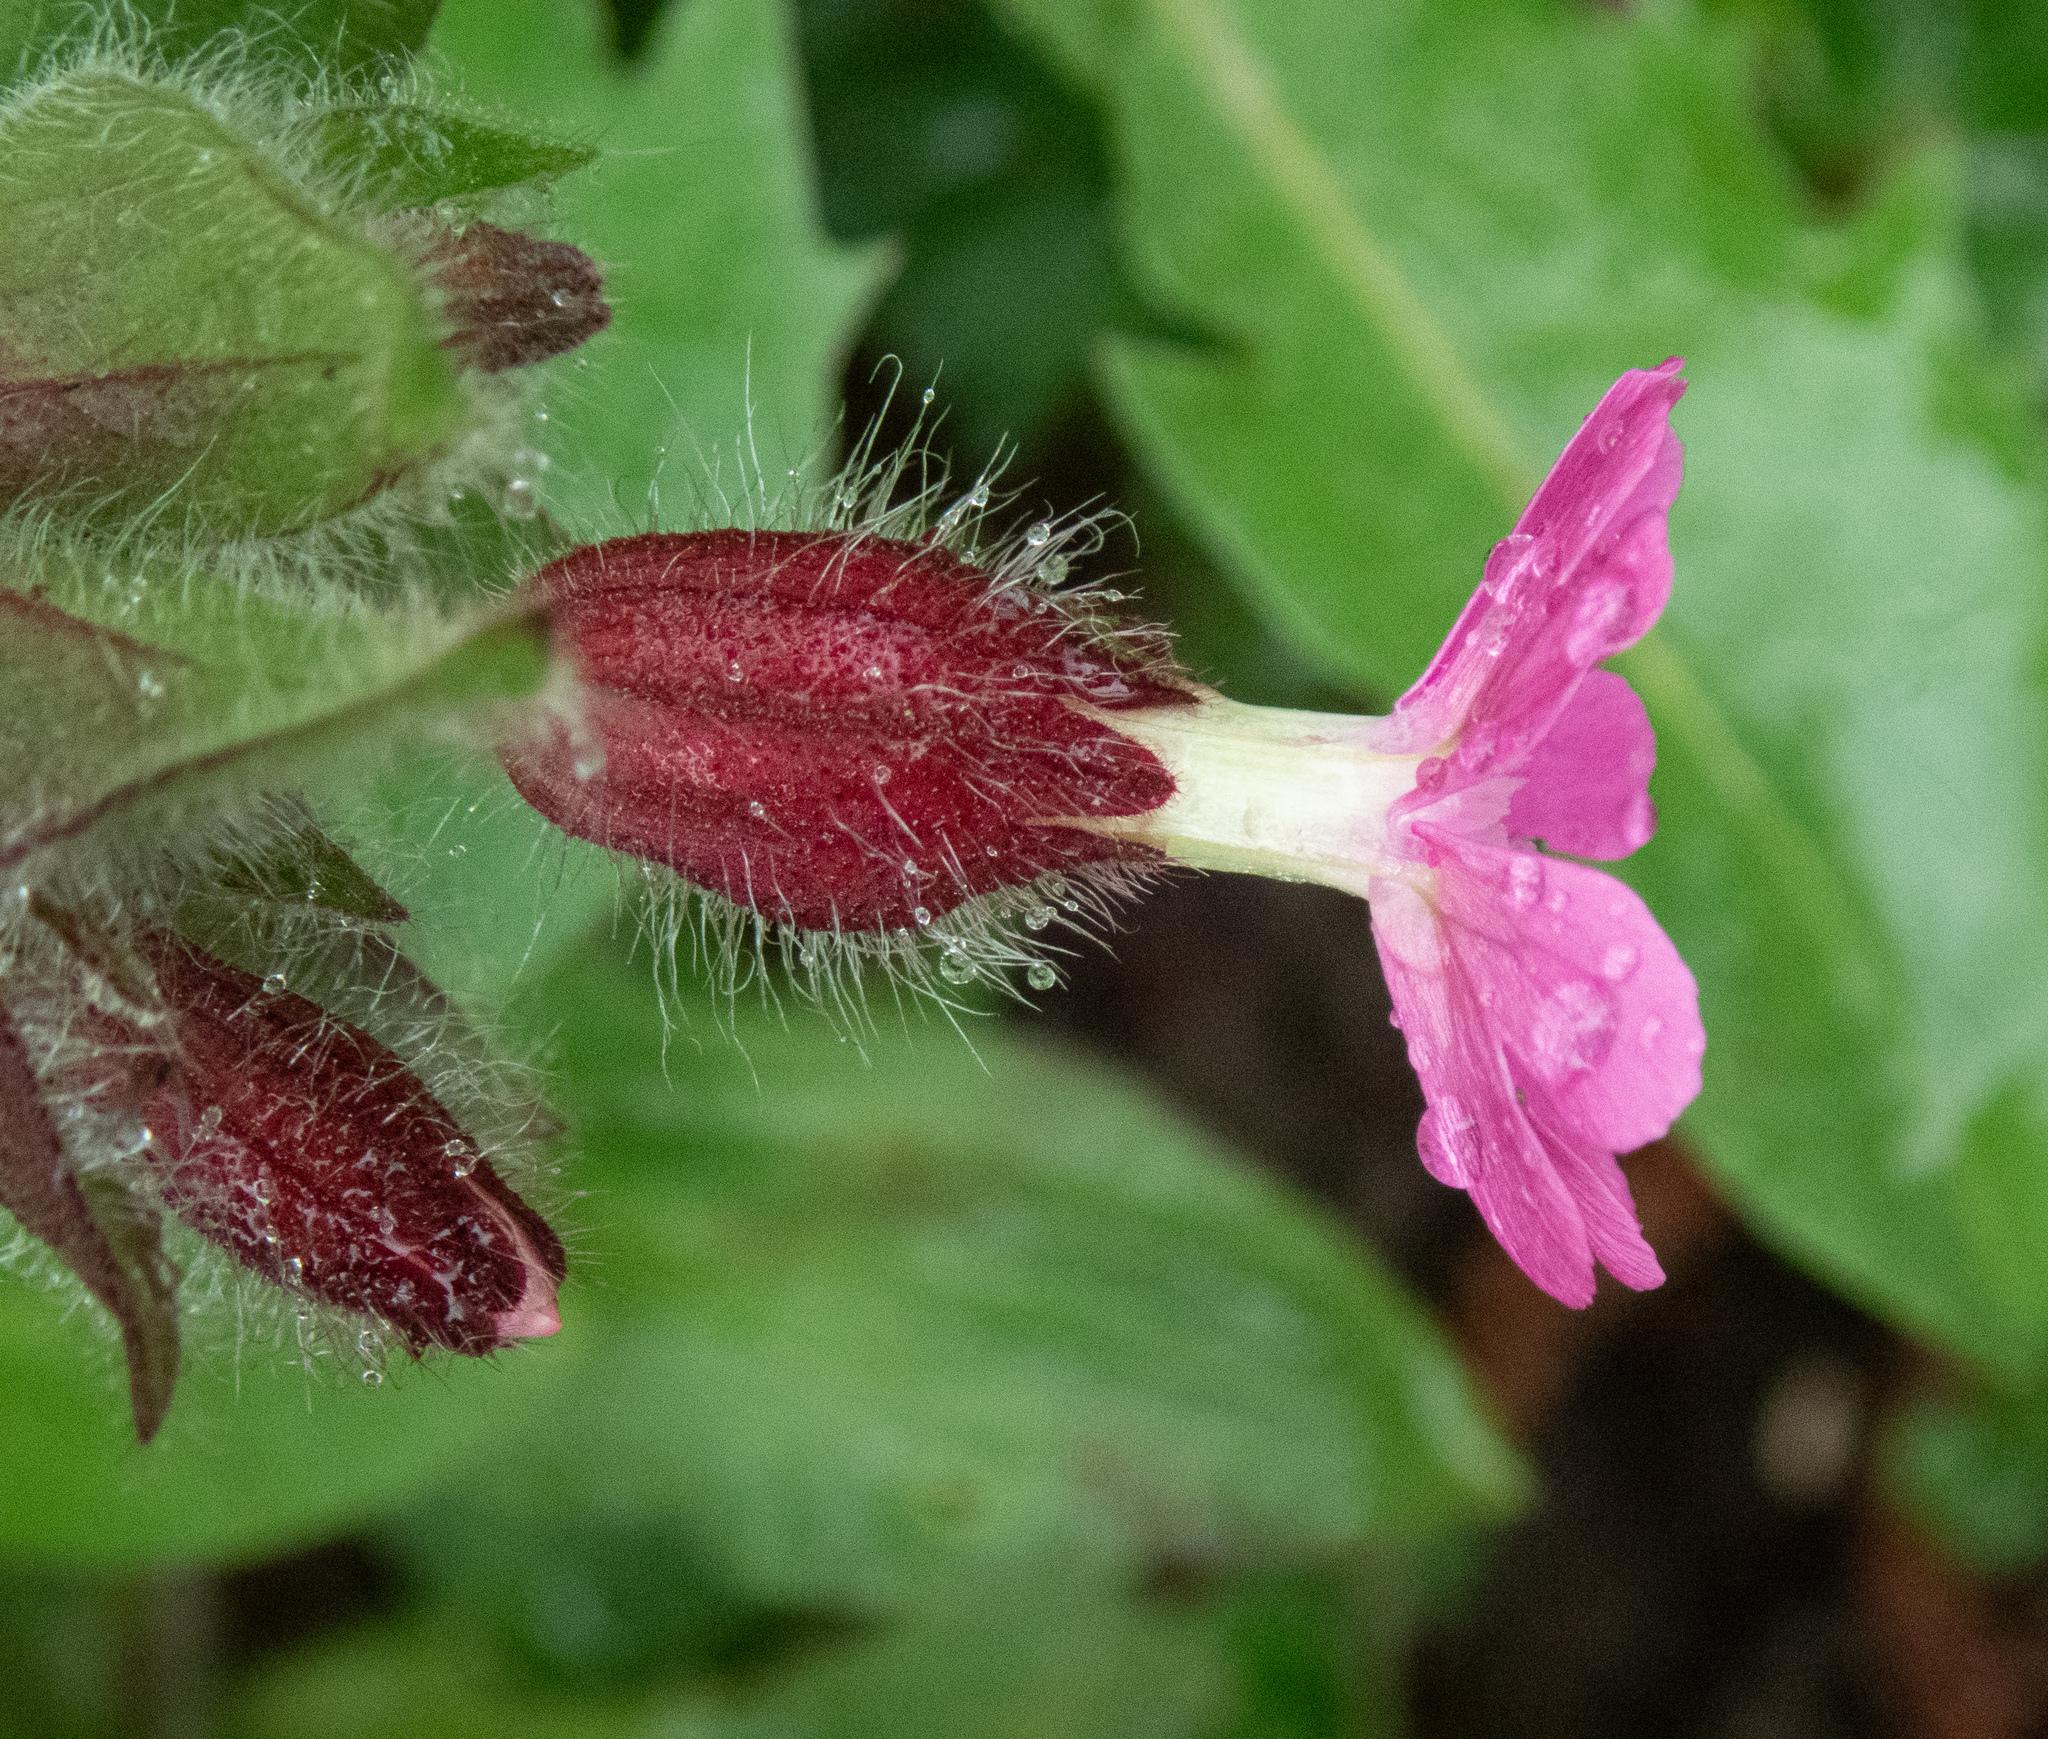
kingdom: Plantae
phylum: Tracheophyta
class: Magnoliopsida
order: Caryophyllales
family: Caryophyllaceae
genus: Silene
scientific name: Silene dioica
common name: Red campion
